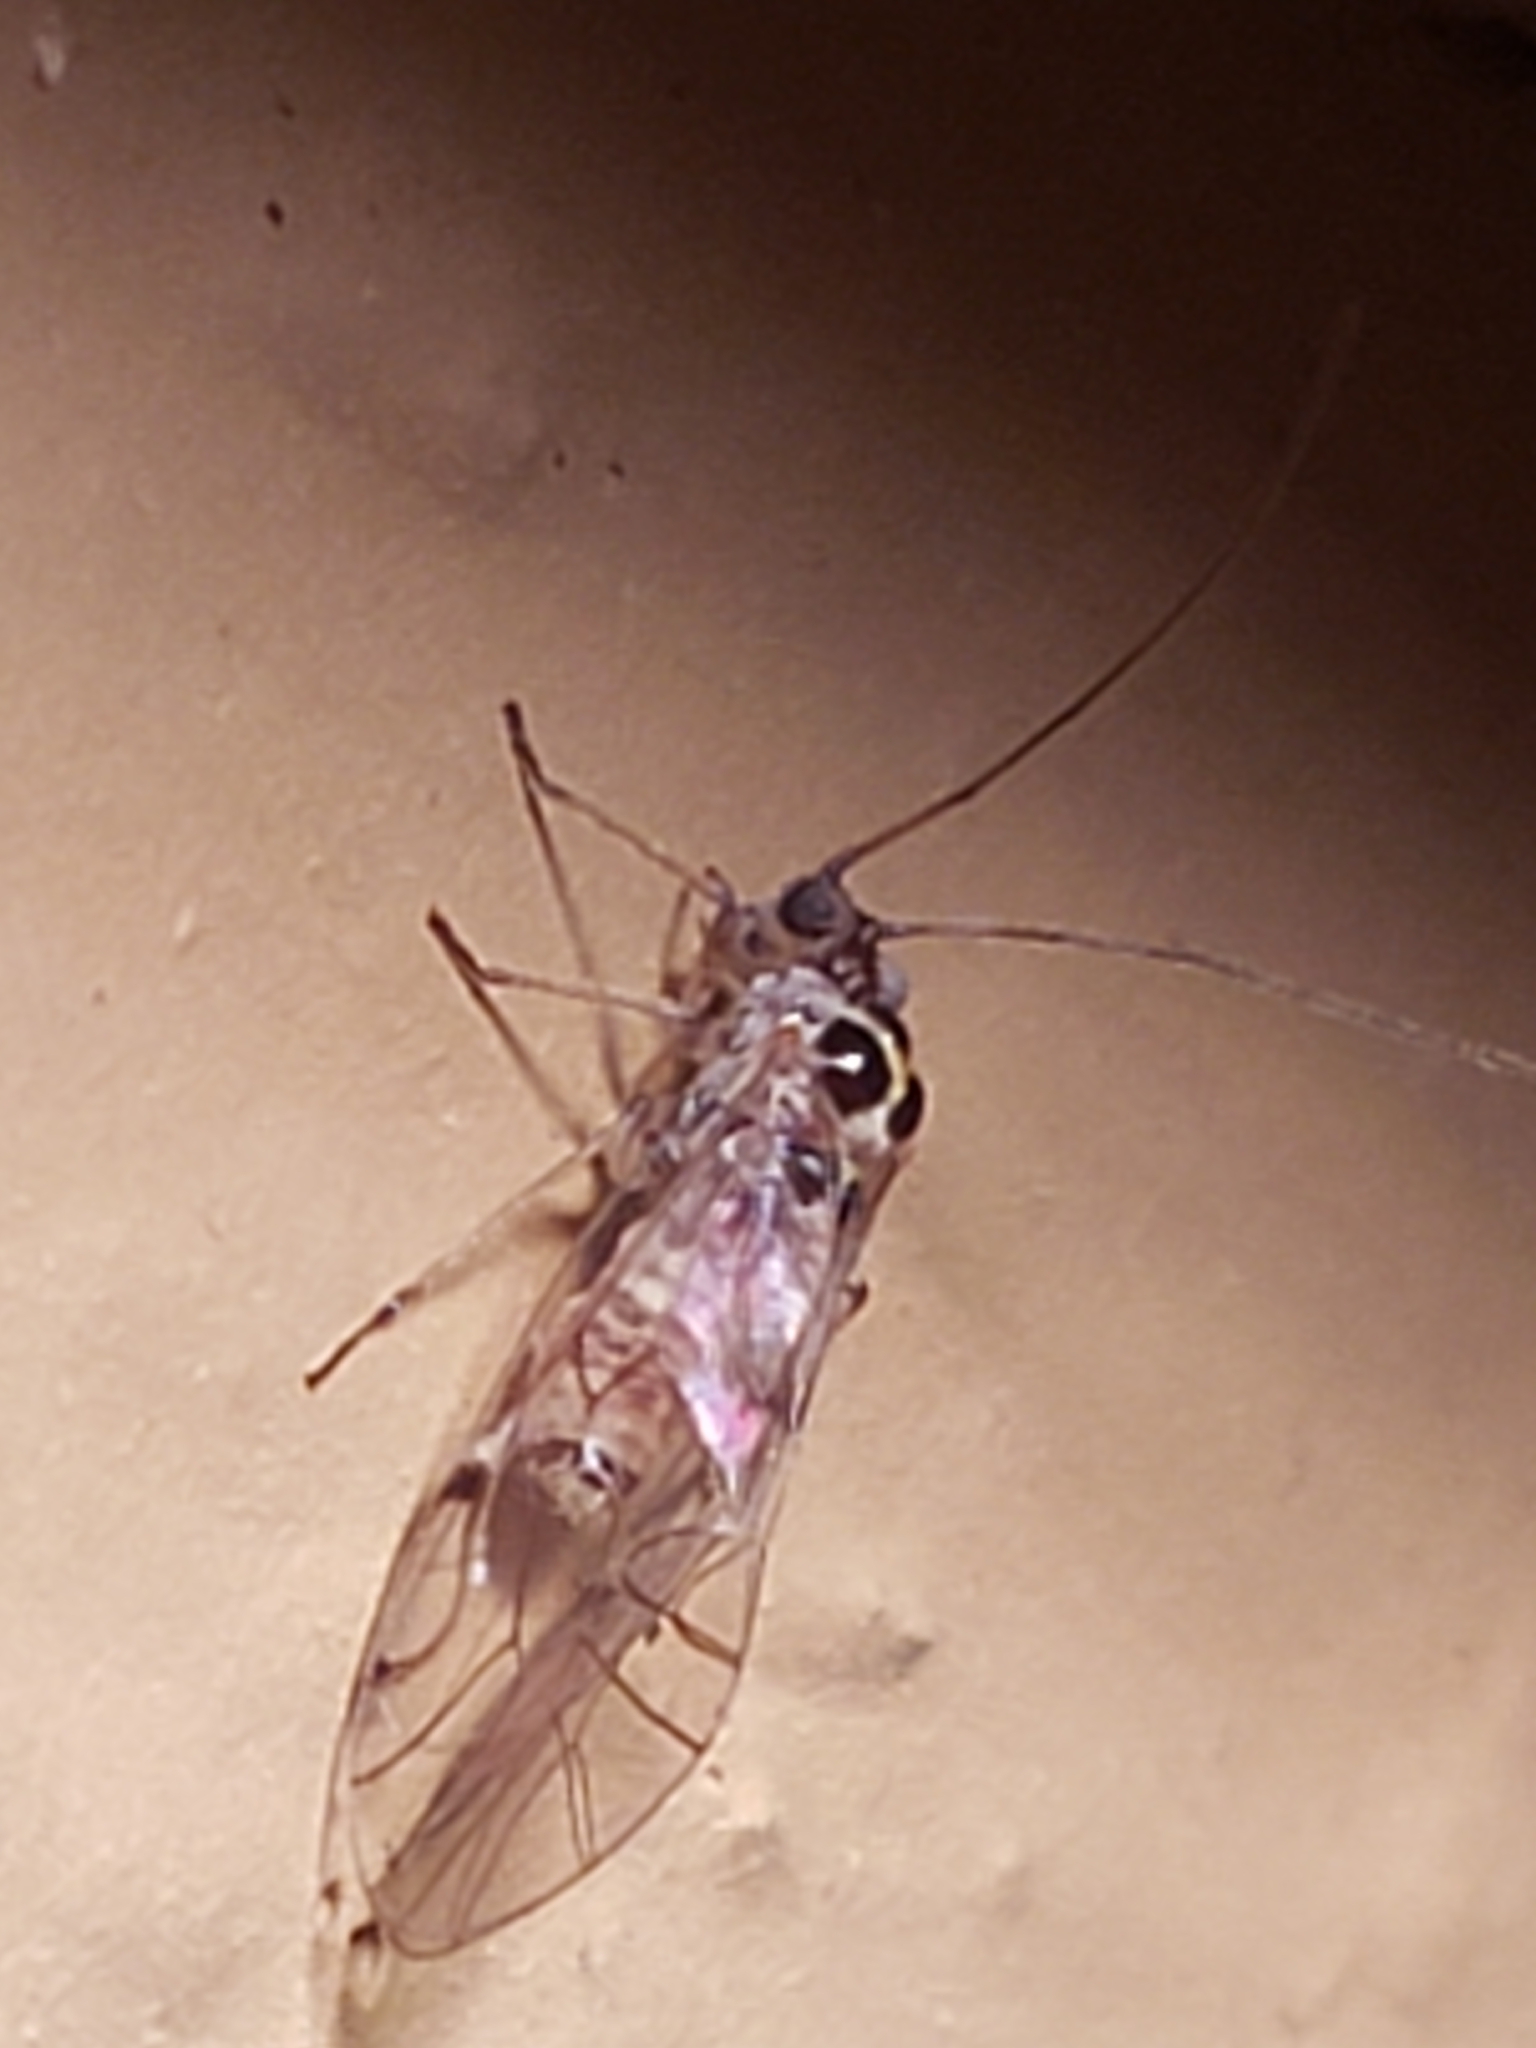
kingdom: Animalia
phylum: Arthropoda
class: Insecta
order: Psocodea
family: Dasydemellidae
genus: Teliapsocus
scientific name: Teliapsocus conterminus
